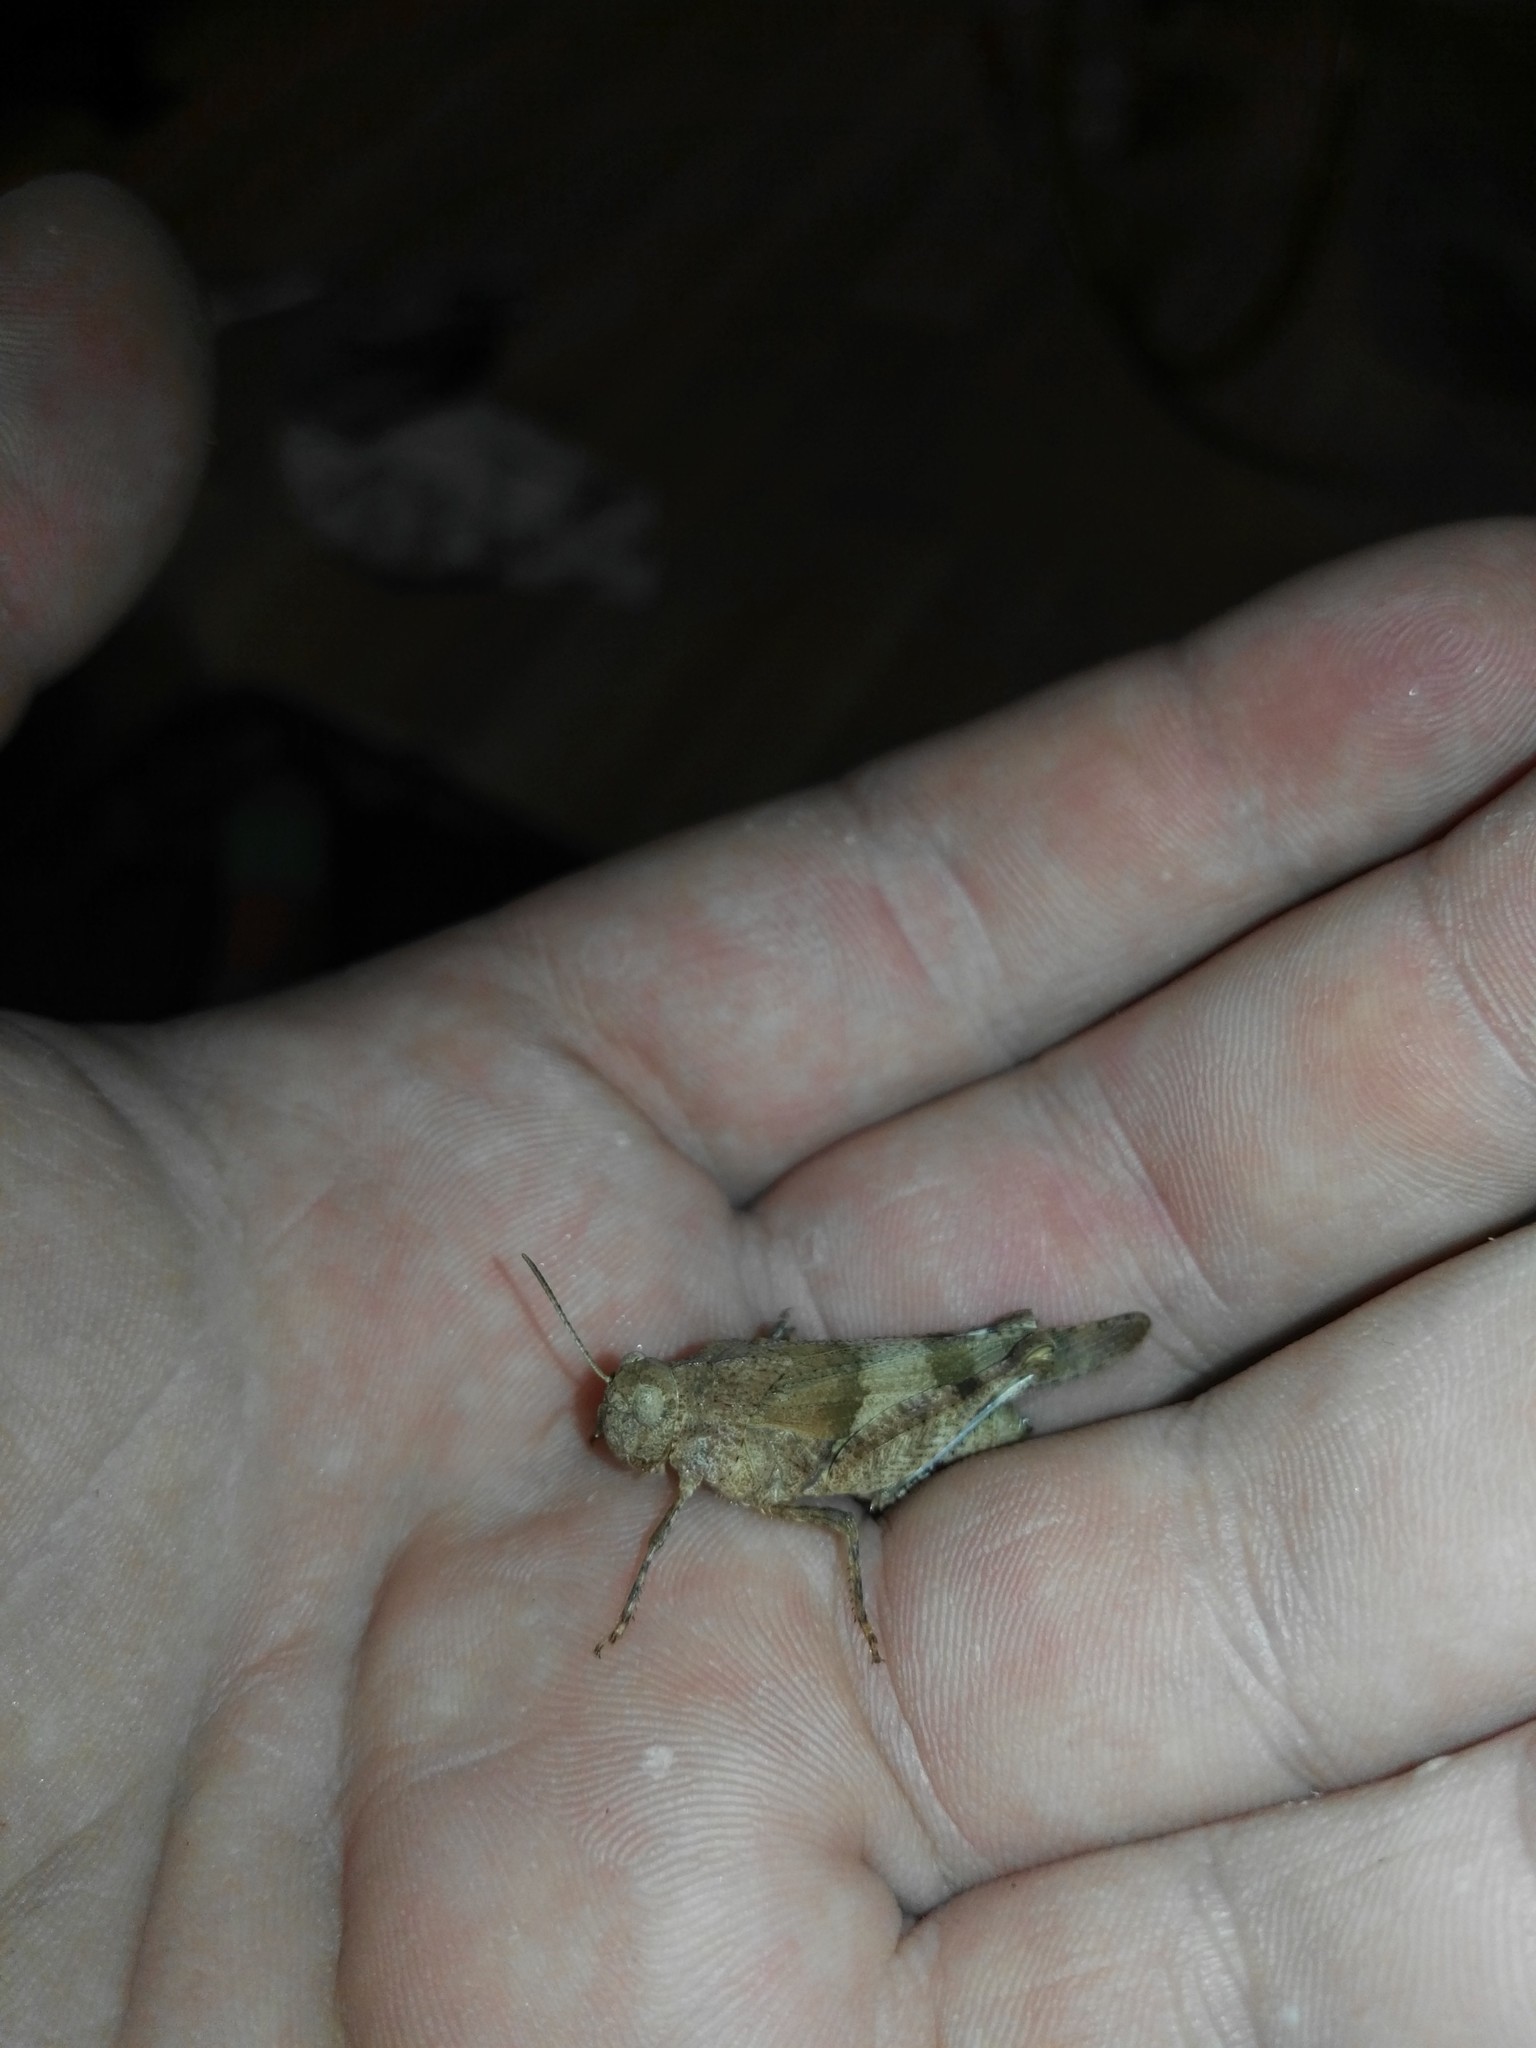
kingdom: Animalia
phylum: Arthropoda
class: Insecta
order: Orthoptera
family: Acrididae
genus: Oedipoda
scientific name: Oedipoda caerulescens
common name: Blue-winged grasshopper
